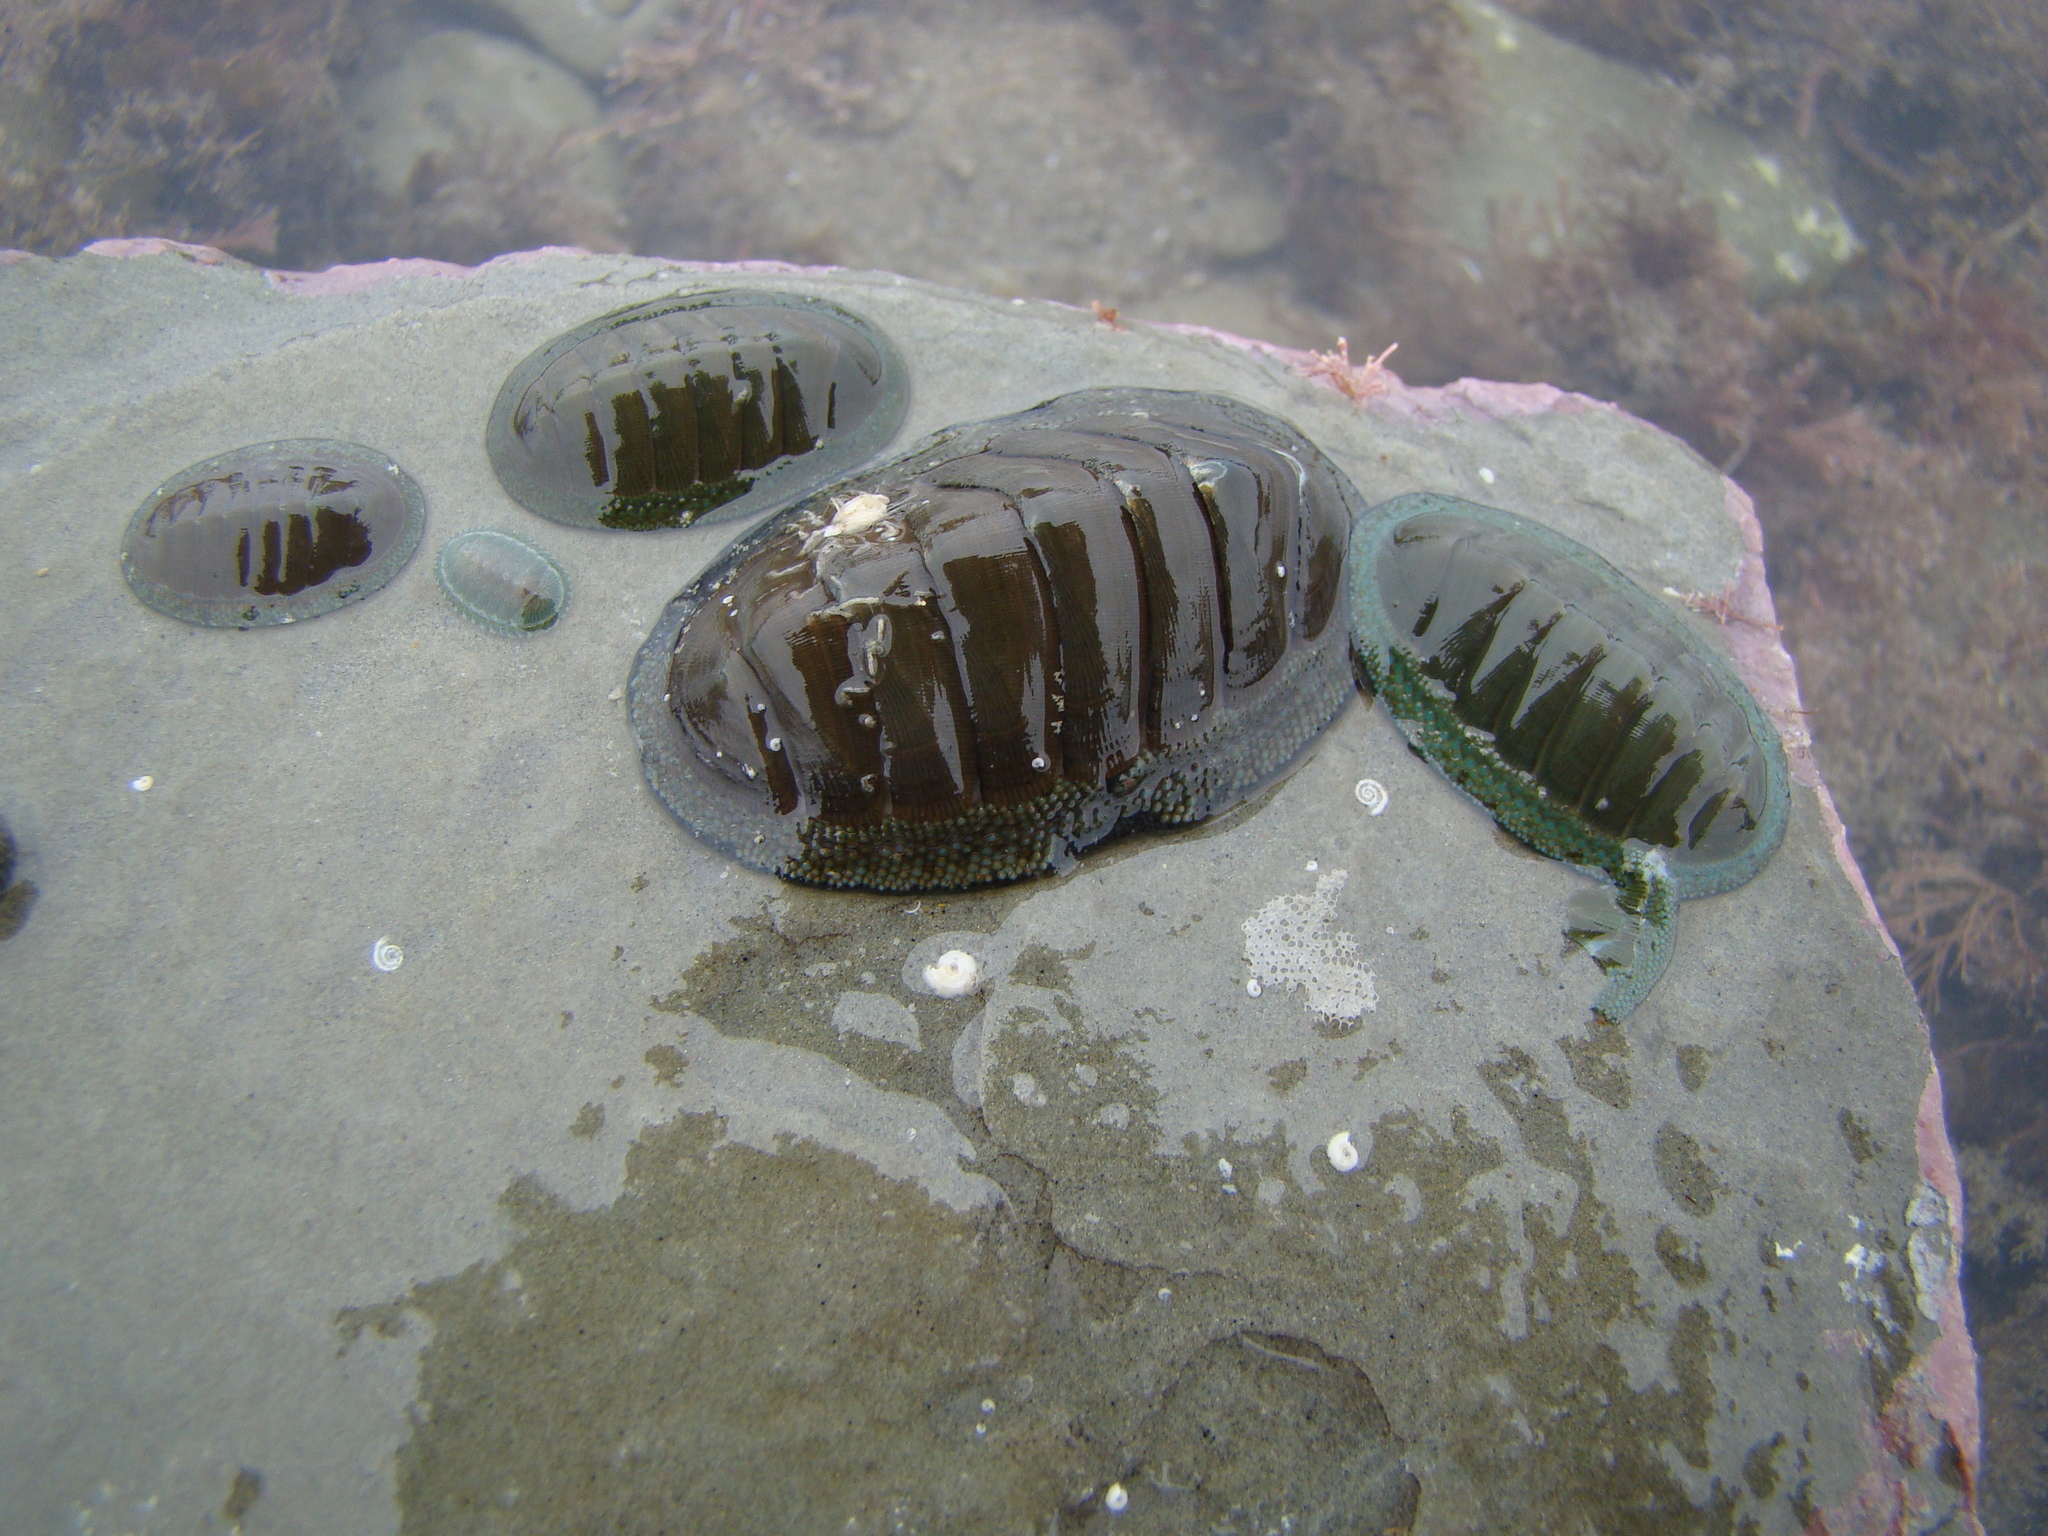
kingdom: Animalia
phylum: Mollusca
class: Polyplacophora
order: Chitonida
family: Chitonidae
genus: Chiton
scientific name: Chiton glaucus
